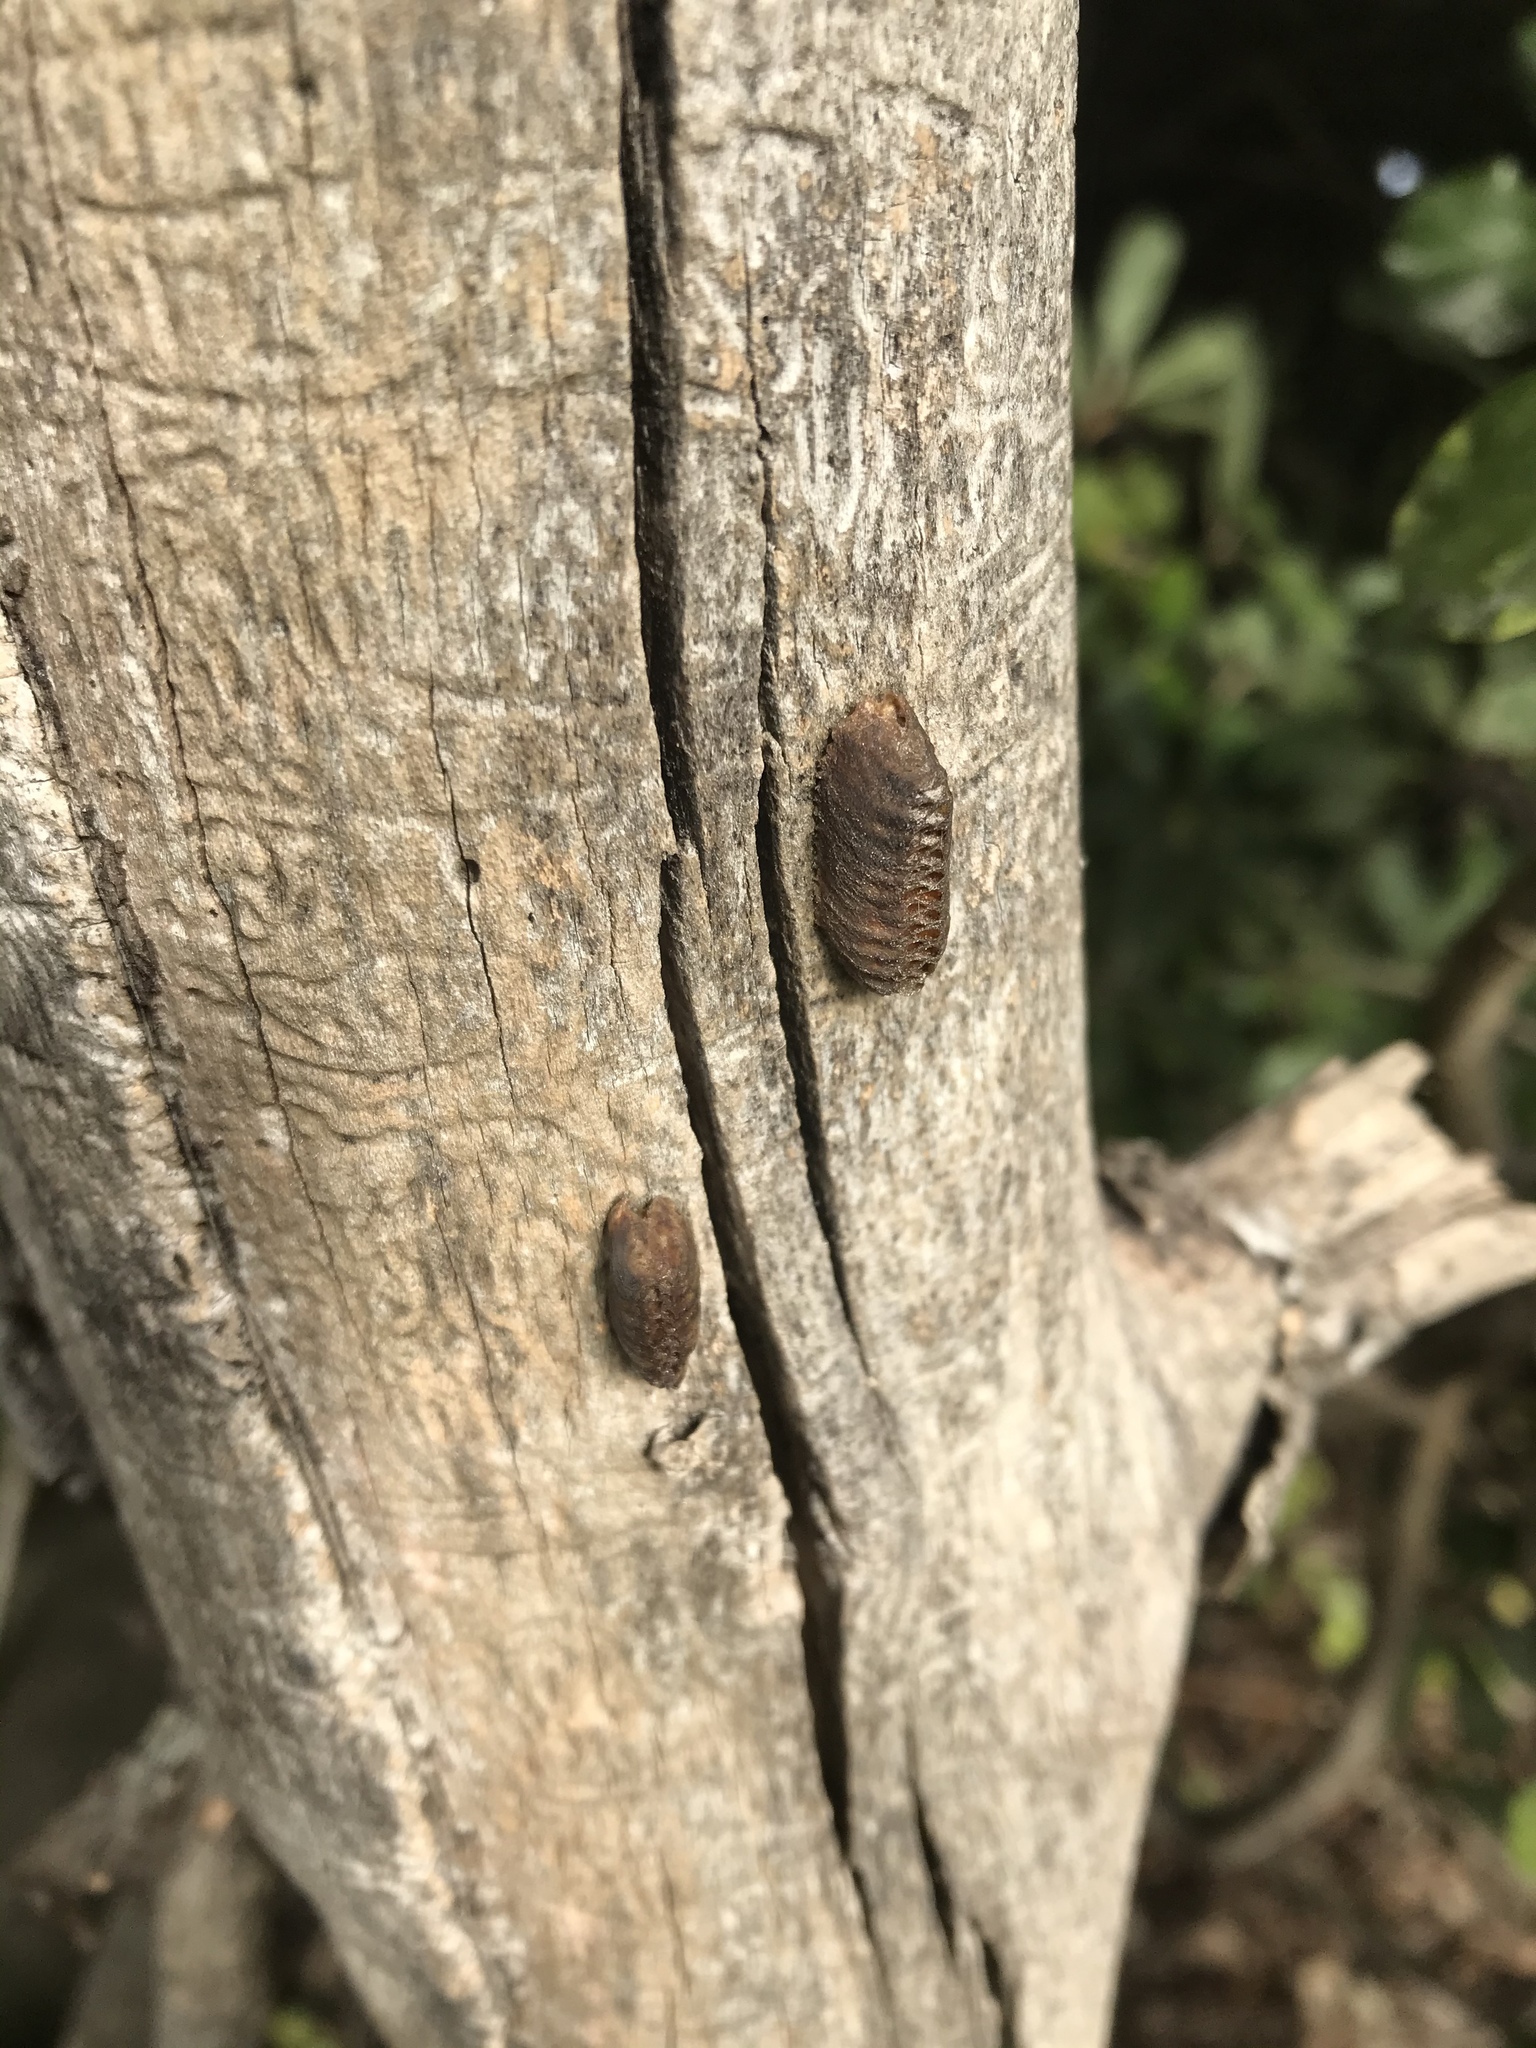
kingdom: Animalia
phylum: Arthropoda
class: Insecta
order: Mantodea
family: Mantidae
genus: Orthodera
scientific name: Orthodera novaezealandiae
